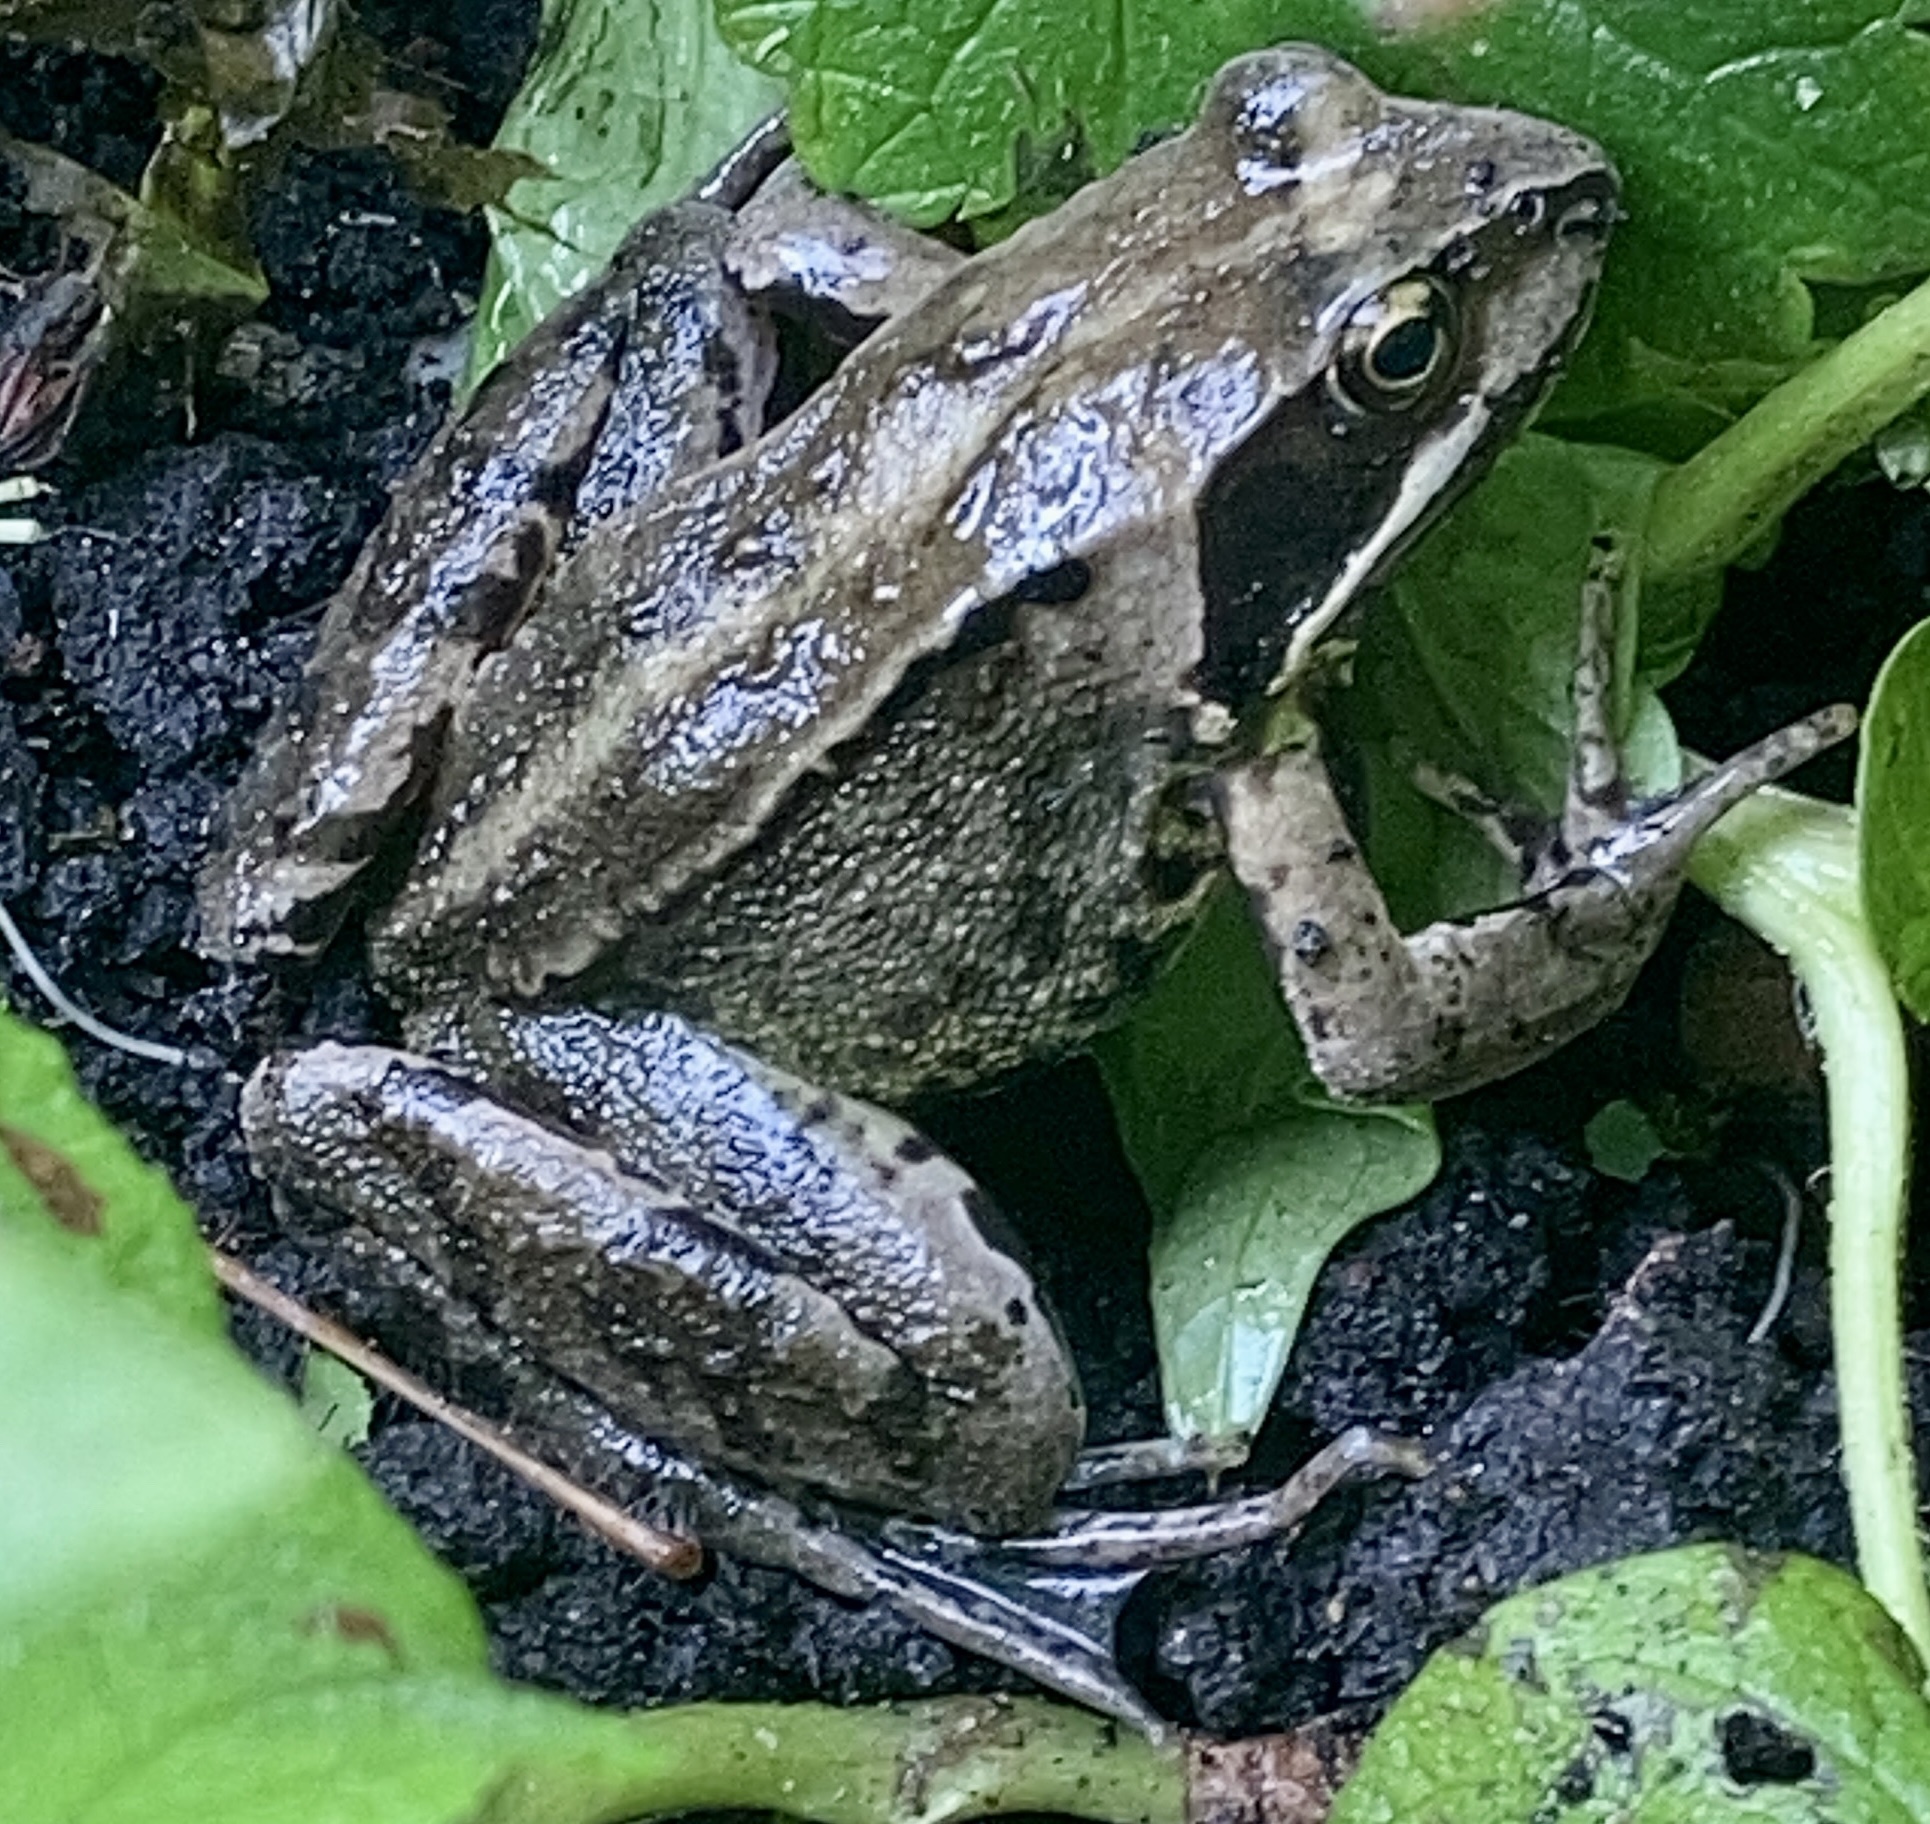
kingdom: Animalia
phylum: Chordata
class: Amphibia
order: Anura
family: Ranidae
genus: Rana
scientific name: Rana temporaria
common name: Common frog
